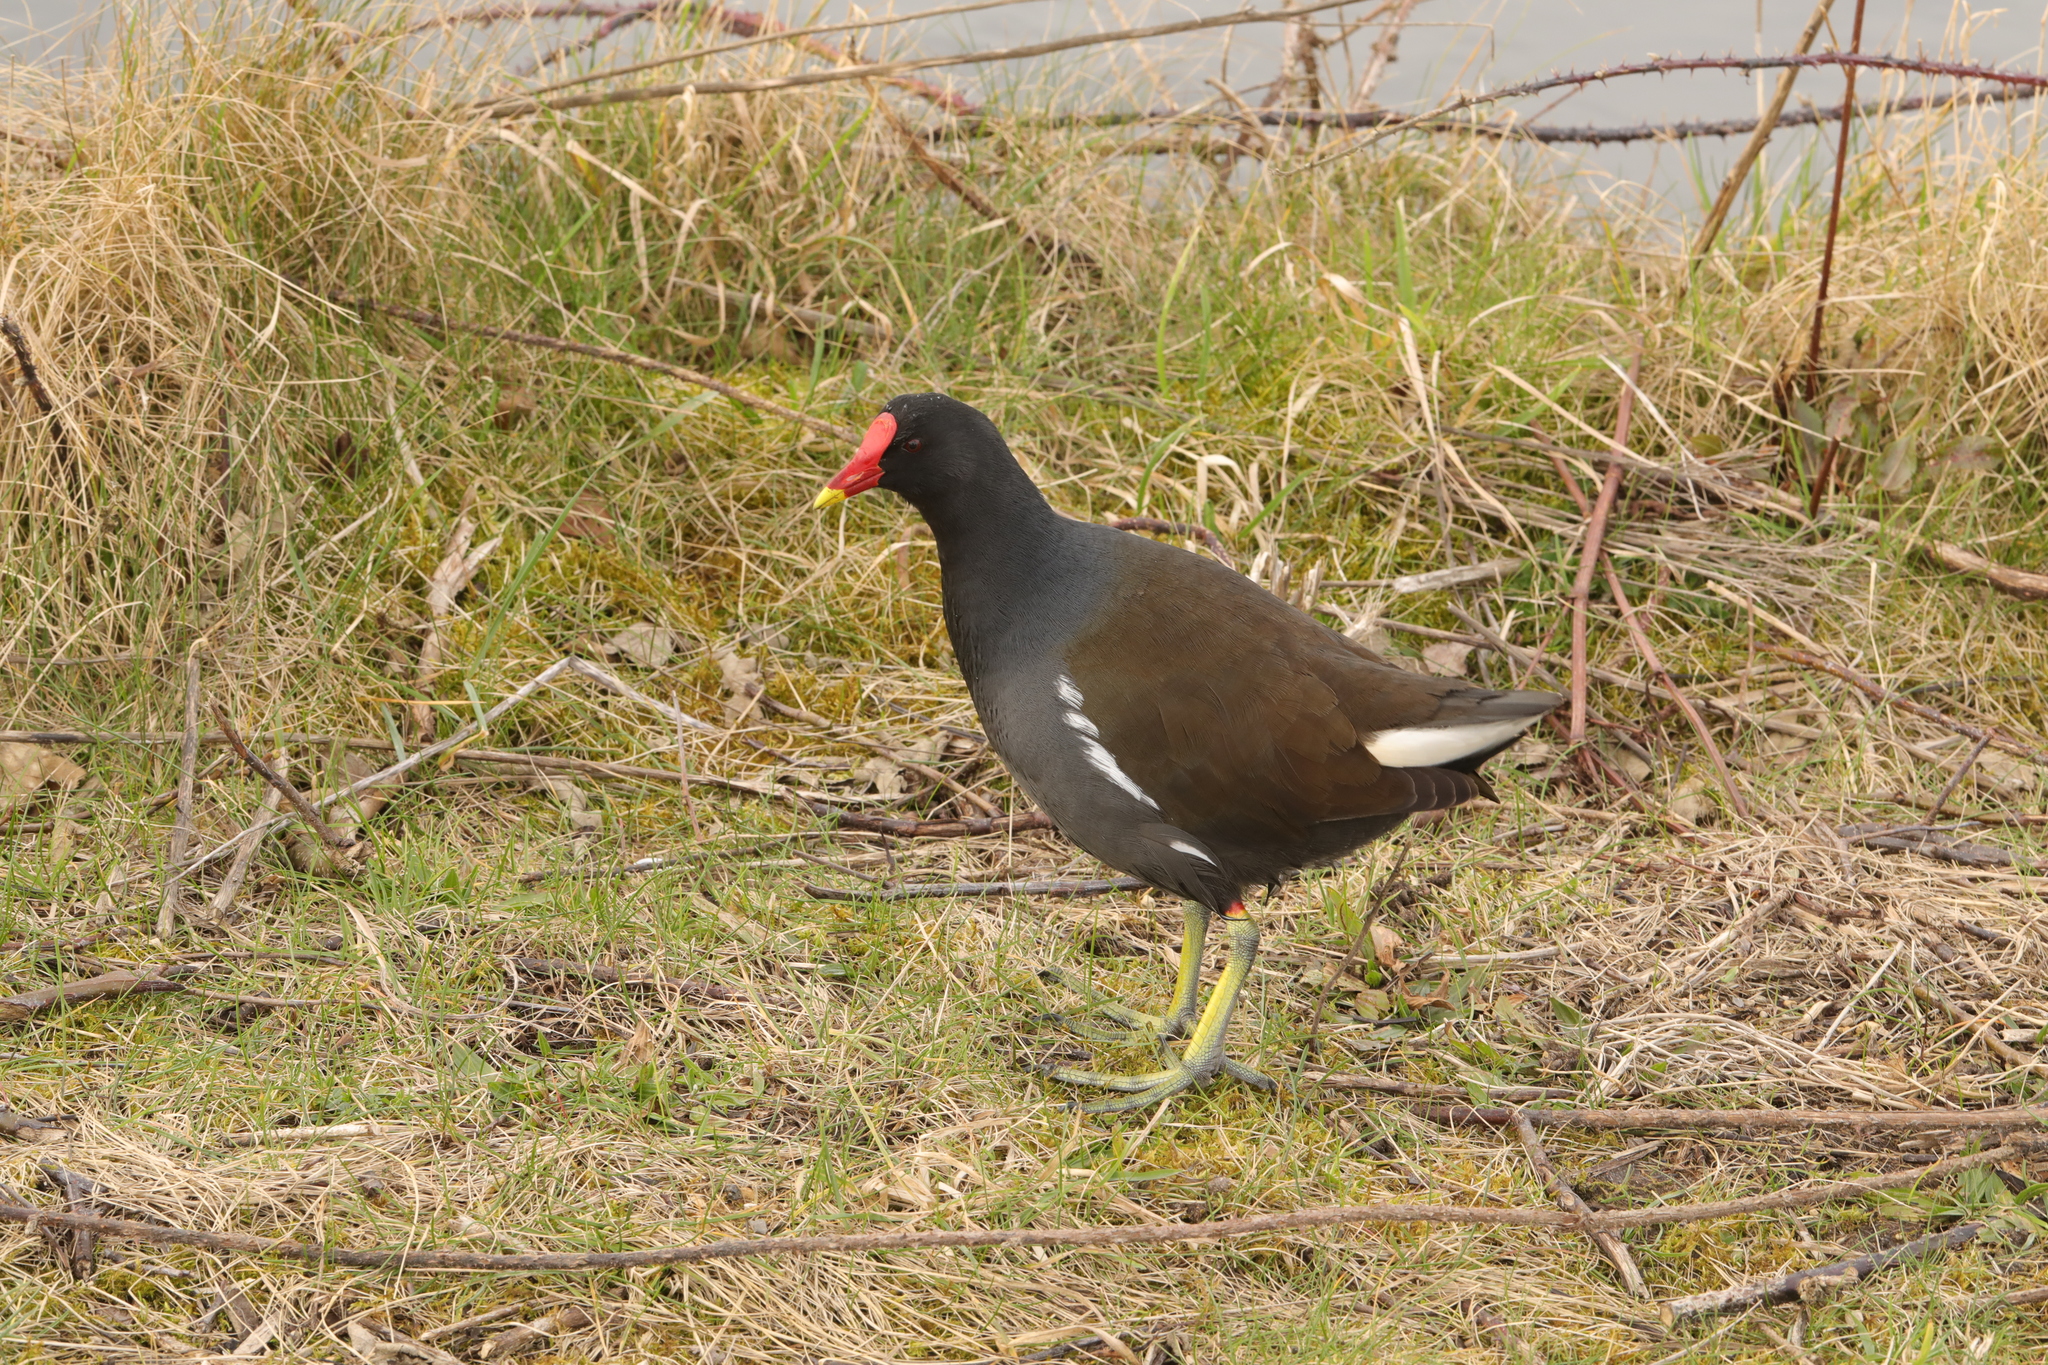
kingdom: Animalia
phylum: Chordata
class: Aves
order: Gruiformes
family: Rallidae
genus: Gallinula
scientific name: Gallinula chloropus
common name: Common moorhen
